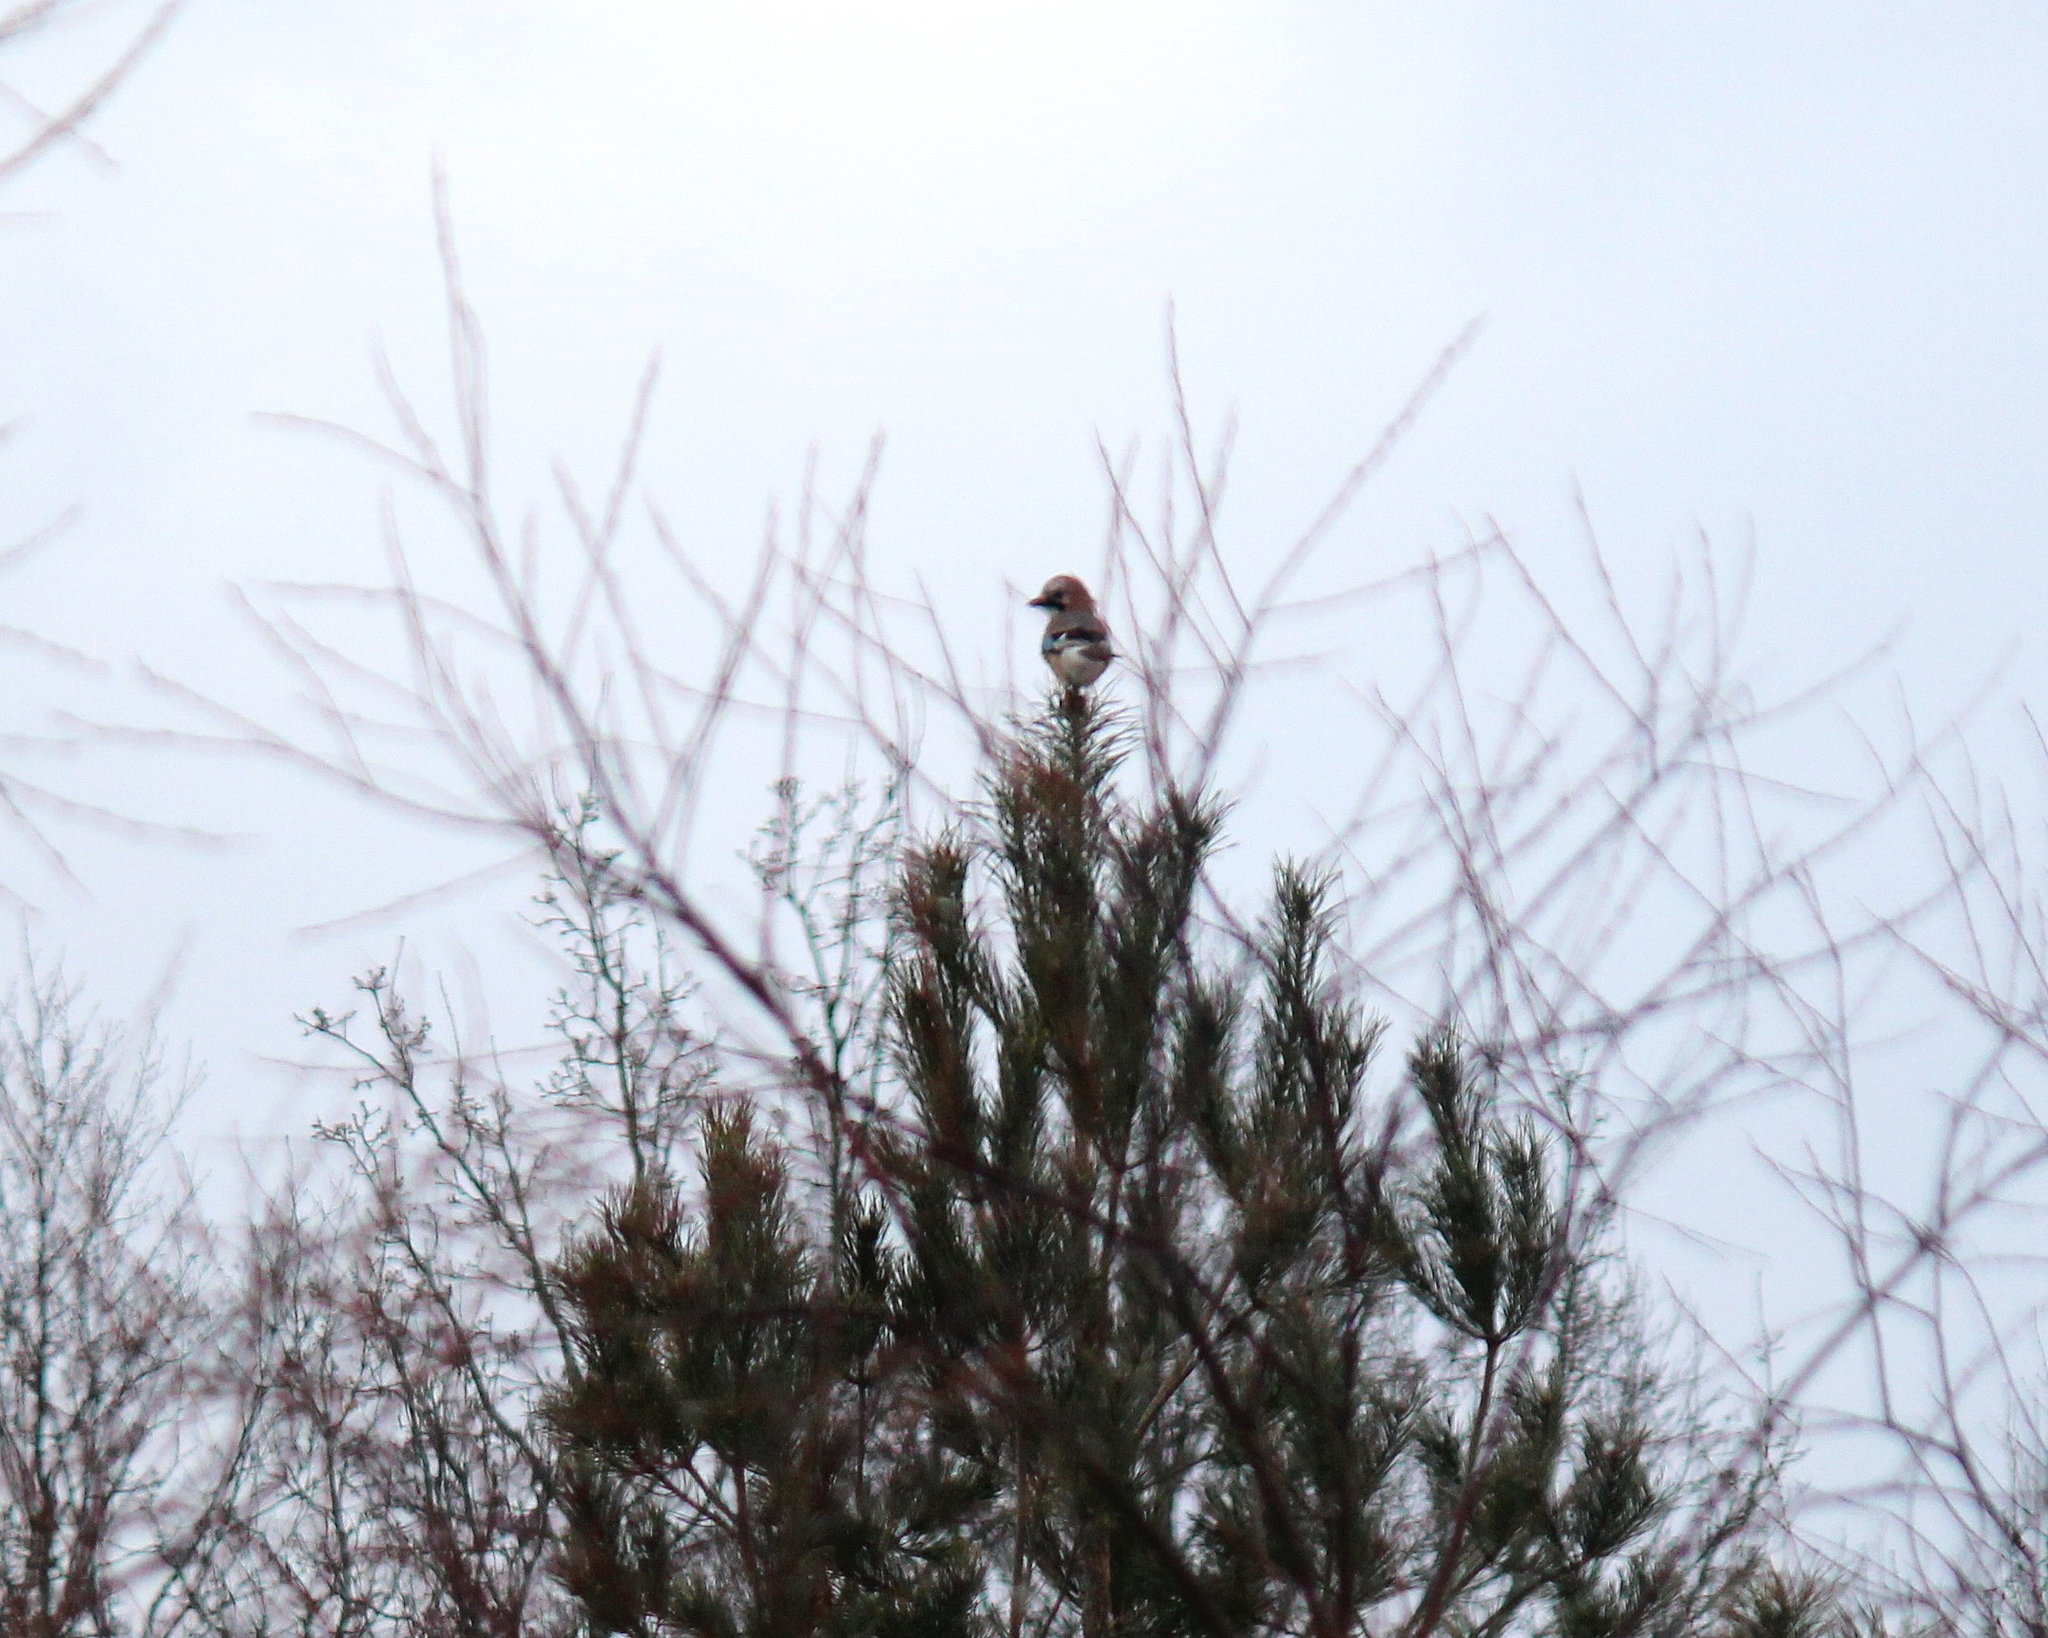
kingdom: Animalia
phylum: Chordata
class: Aves
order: Passeriformes
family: Corvidae
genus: Garrulus
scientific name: Garrulus glandarius
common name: Eurasian jay
